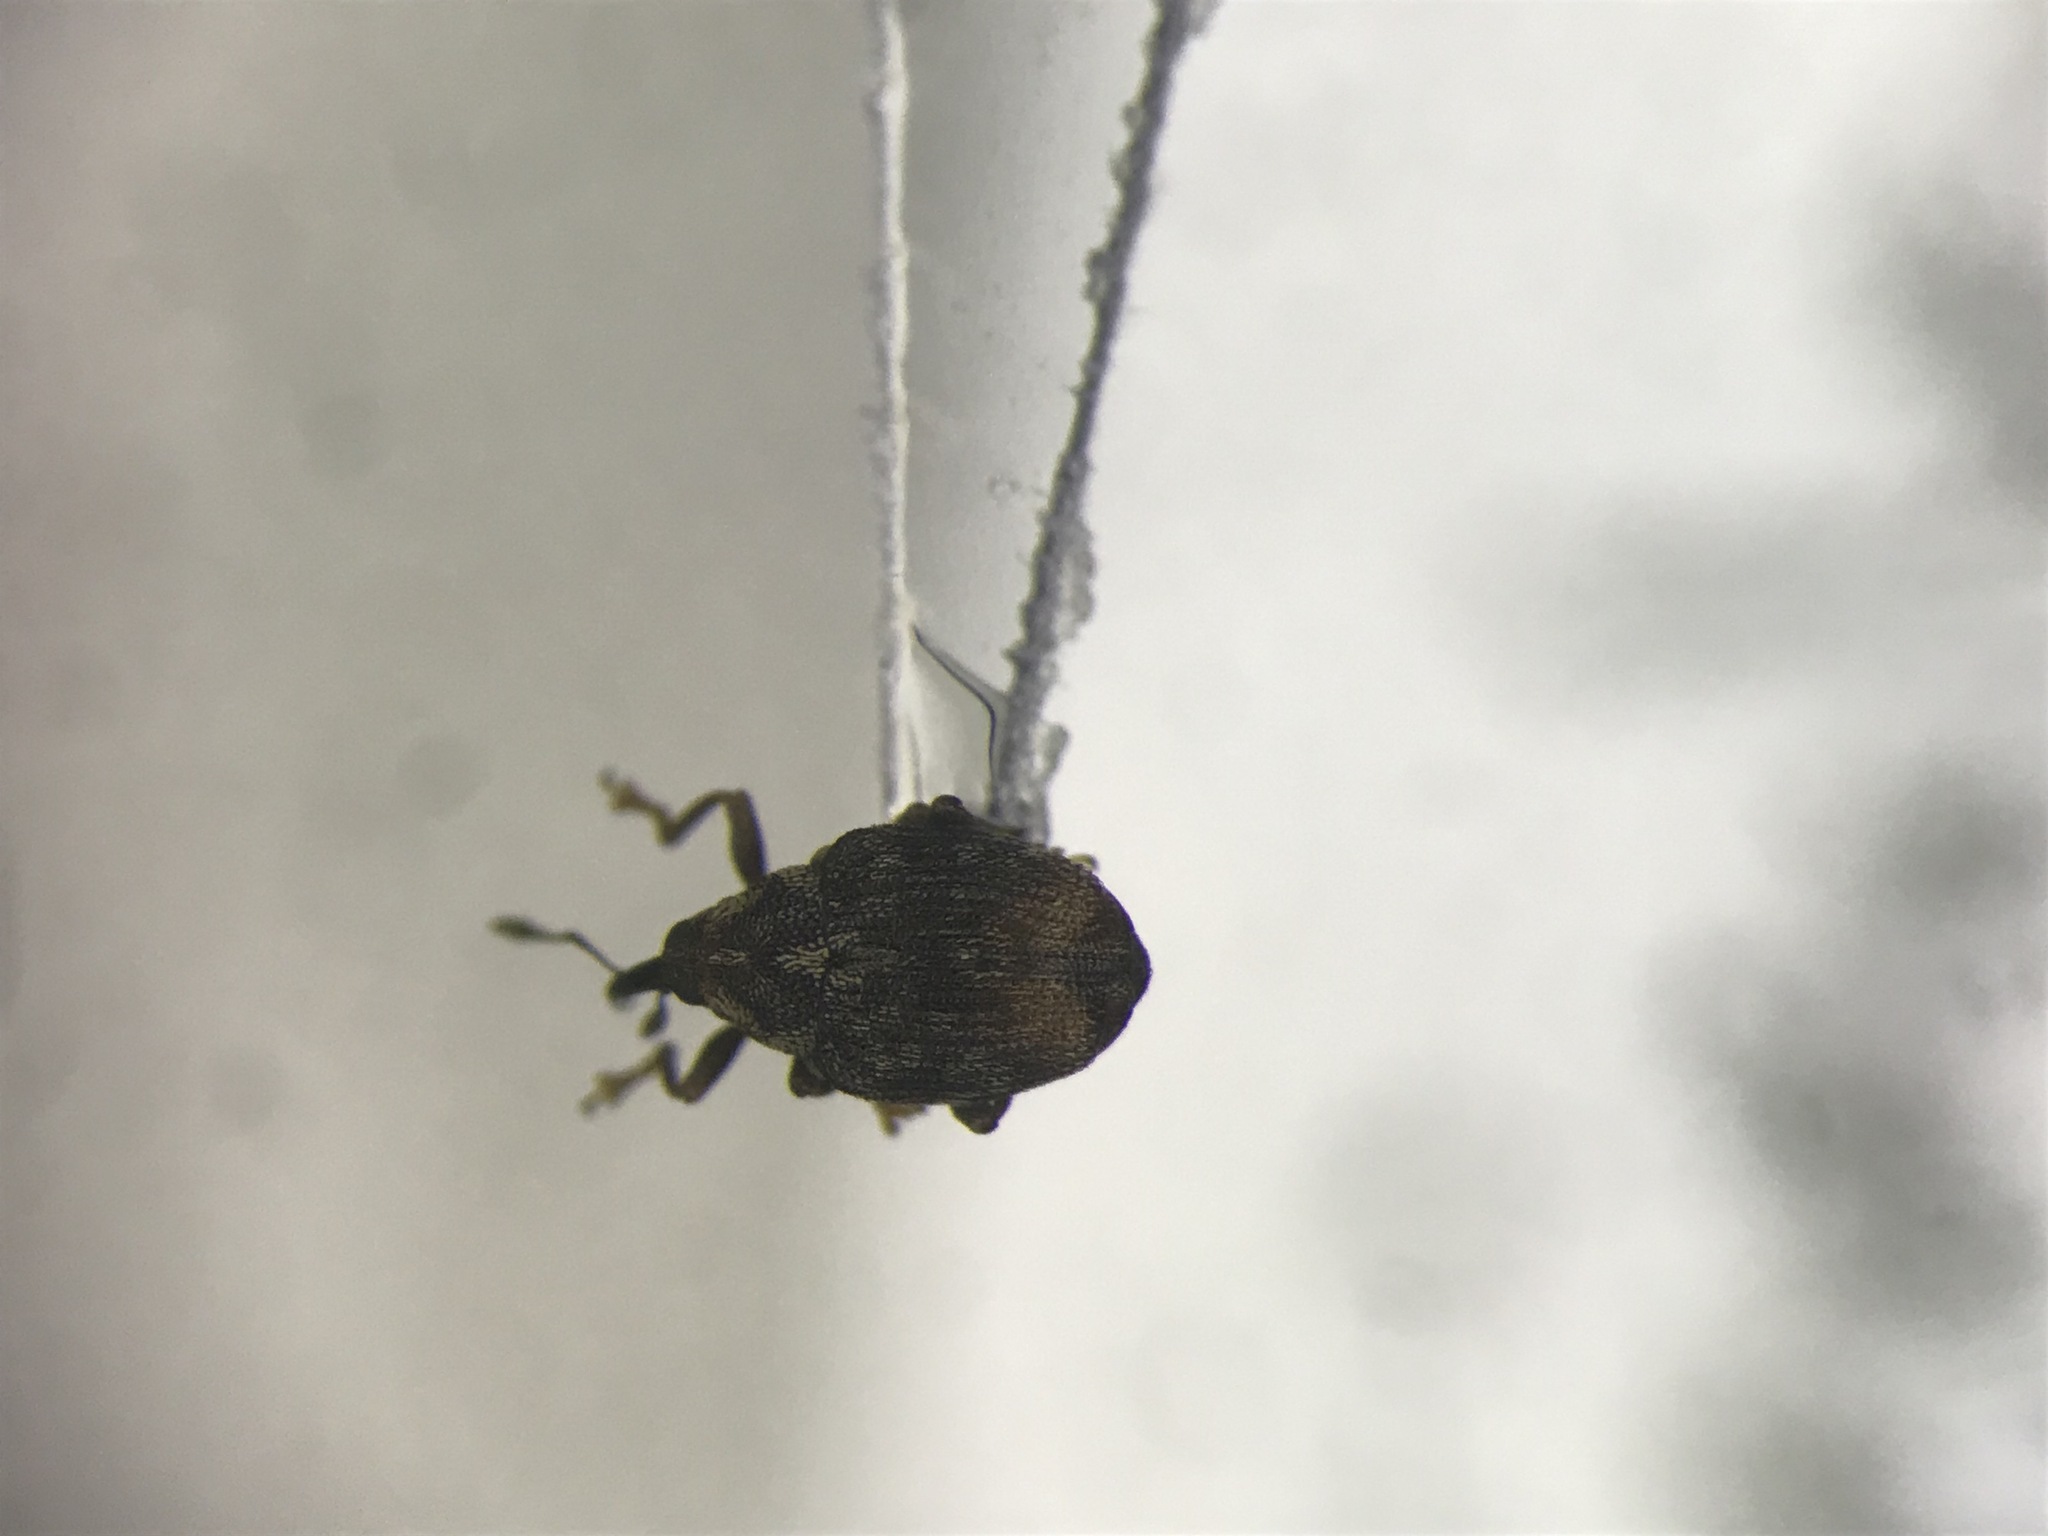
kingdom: Animalia
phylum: Arthropoda
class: Insecta
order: Coleoptera
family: Curculionidae
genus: Ceutorhynchus
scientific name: Ceutorhynchus neglectus
